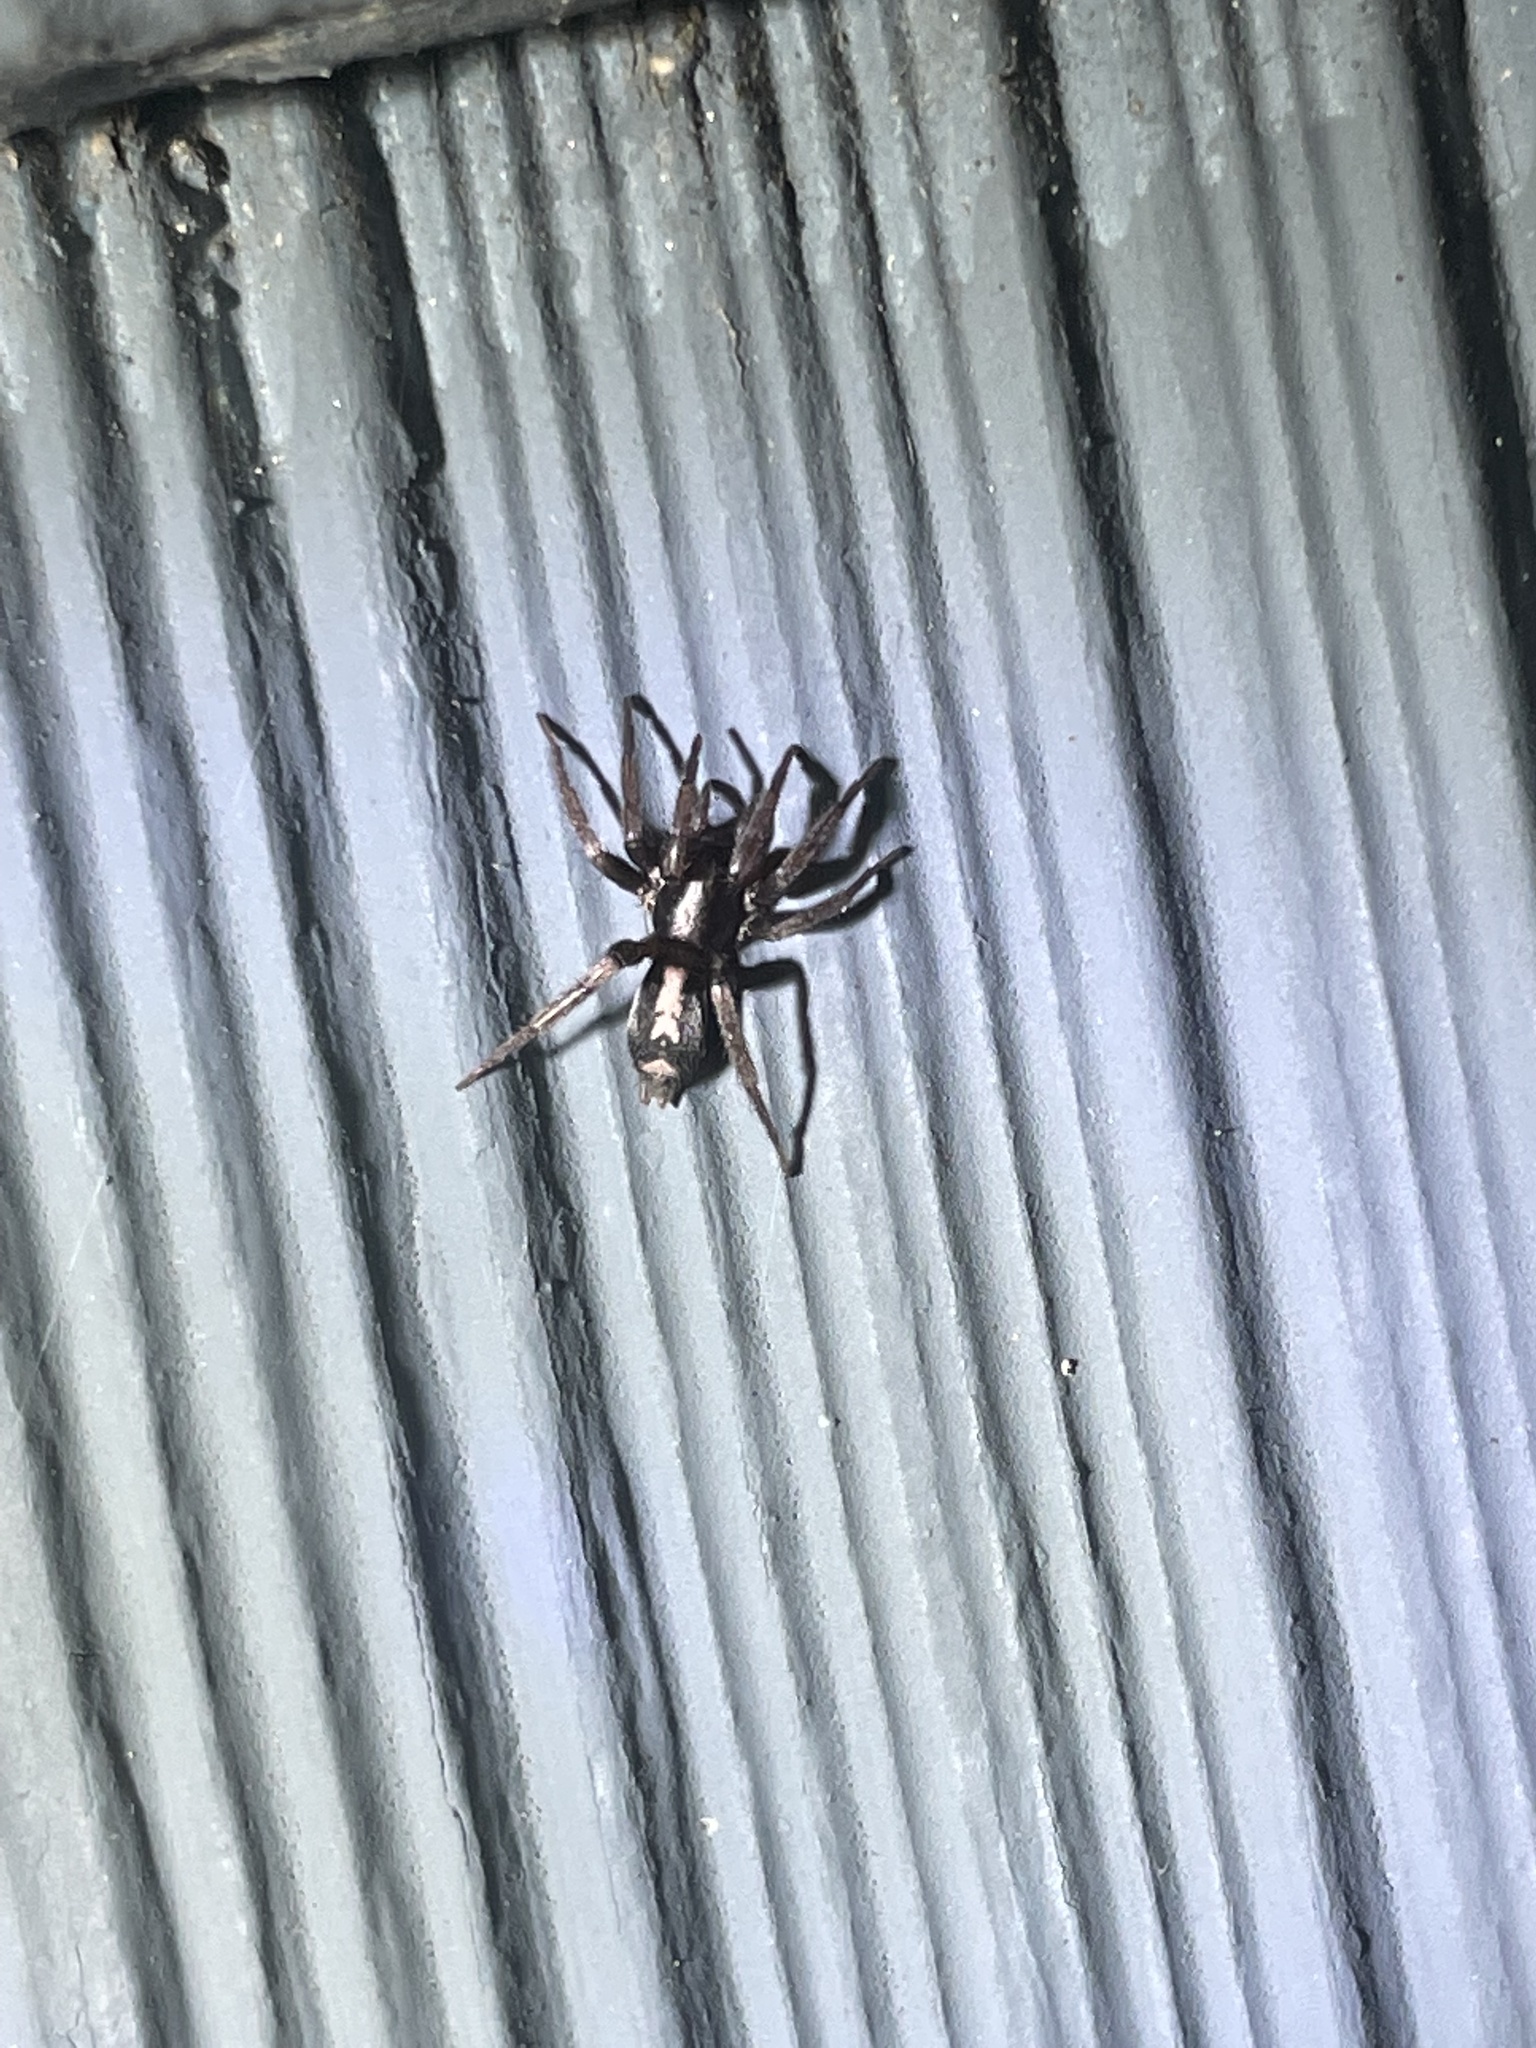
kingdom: Animalia
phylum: Arthropoda
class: Arachnida
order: Araneae
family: Gnaphosidae
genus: Herpyllus
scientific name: Herpyllus ecclesiasticus
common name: Eastern parson spider
